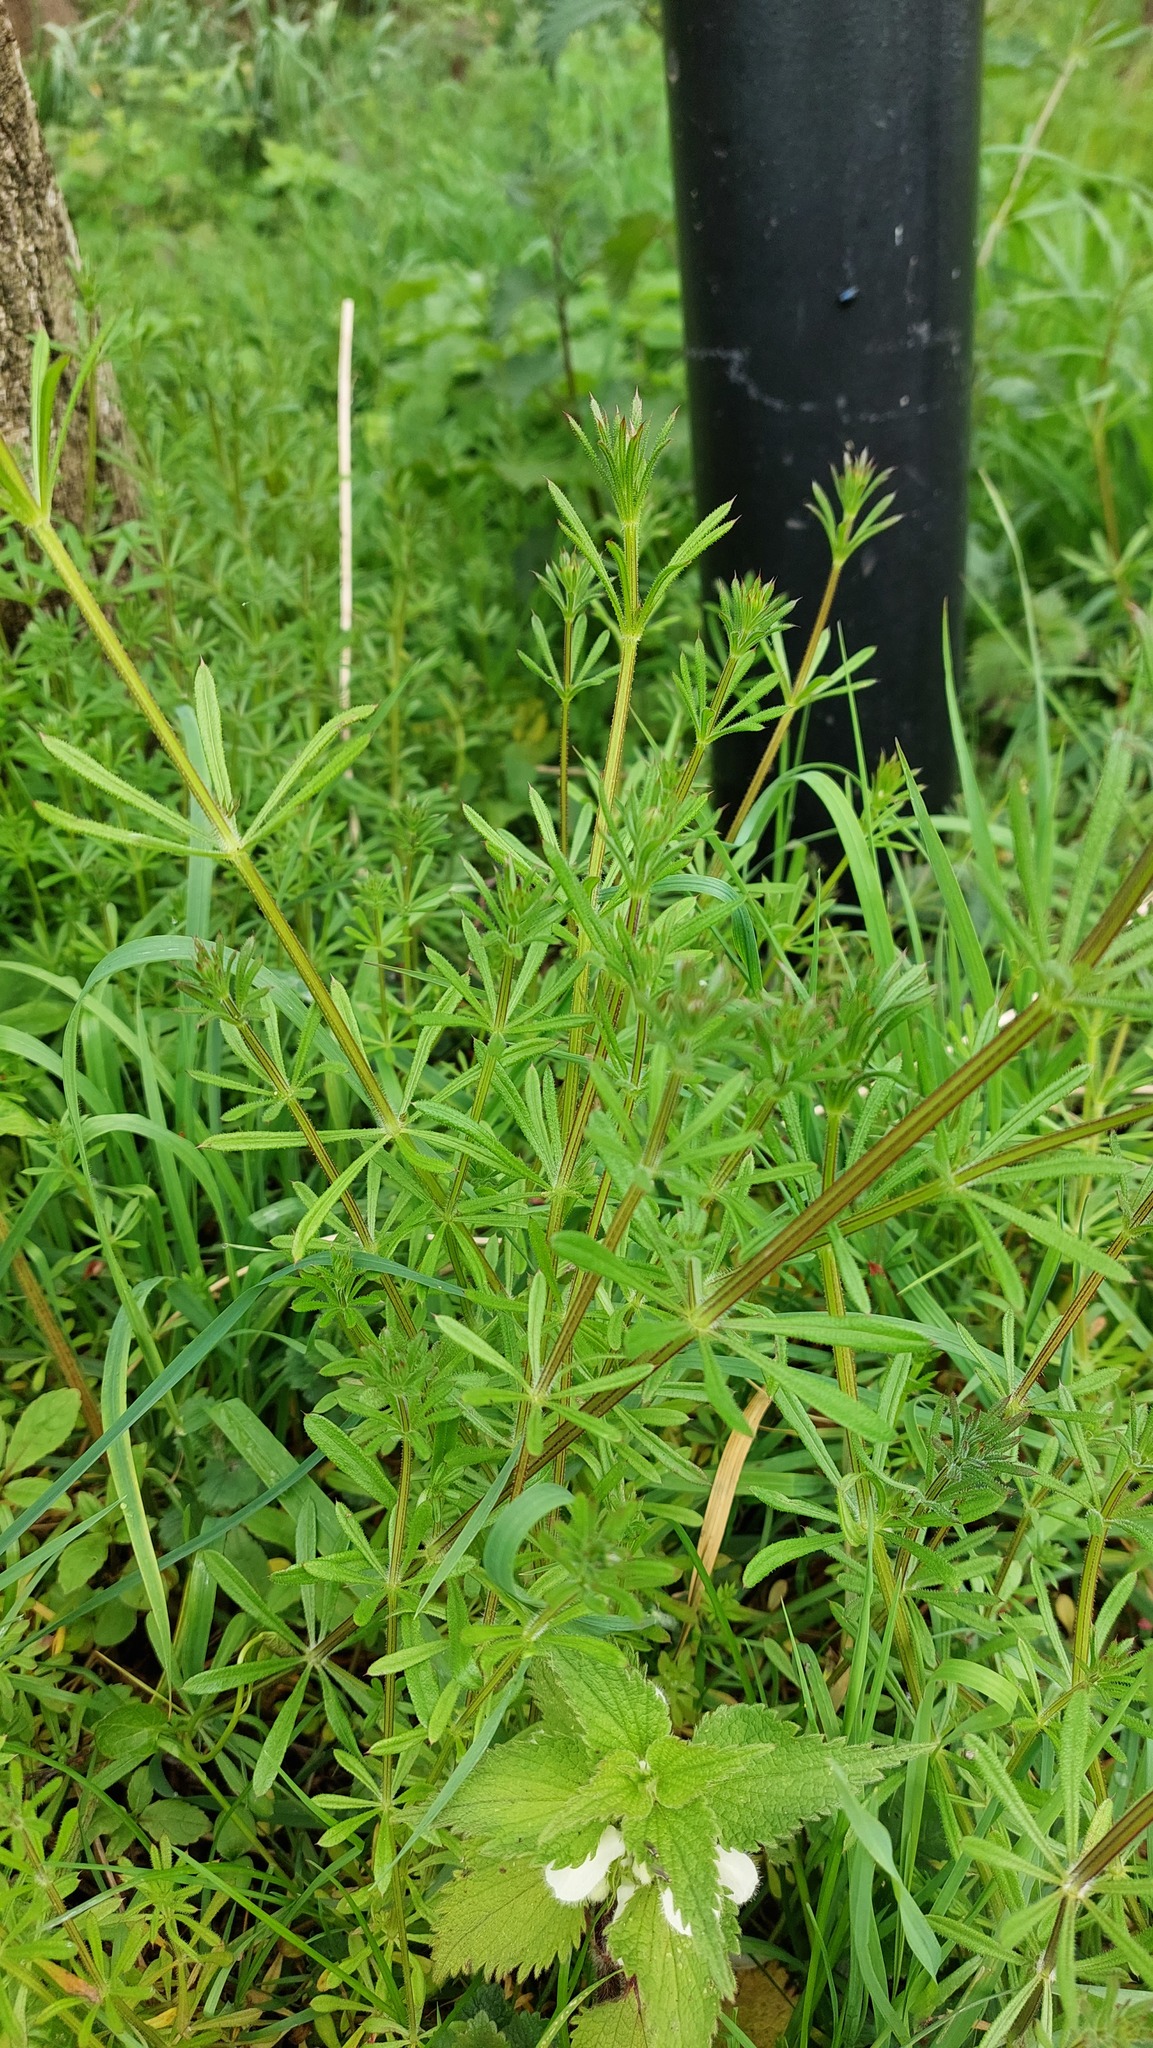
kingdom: Plantae
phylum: Tracheophyta
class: Magnoliopsida
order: Gentianales
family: Rubiaceae
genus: Galium
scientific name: Galium aparine
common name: Cleavers
